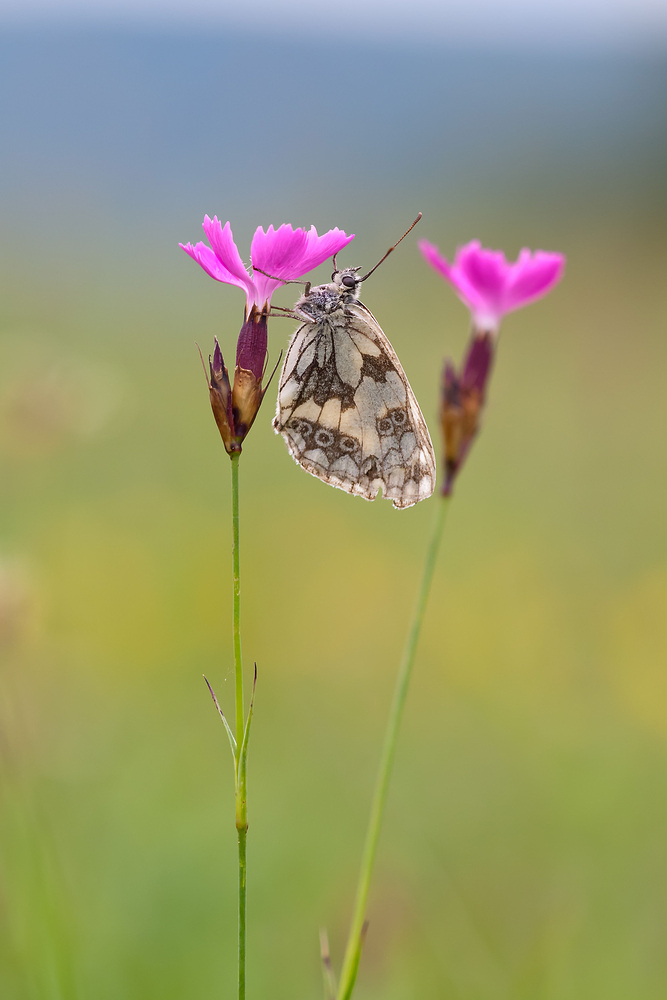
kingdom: Animalia
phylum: Arthropoda
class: Insecta
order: Lepidoptera
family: Nymphalidae
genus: Melanargia
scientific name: Melanargia galathea
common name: Marbled white
